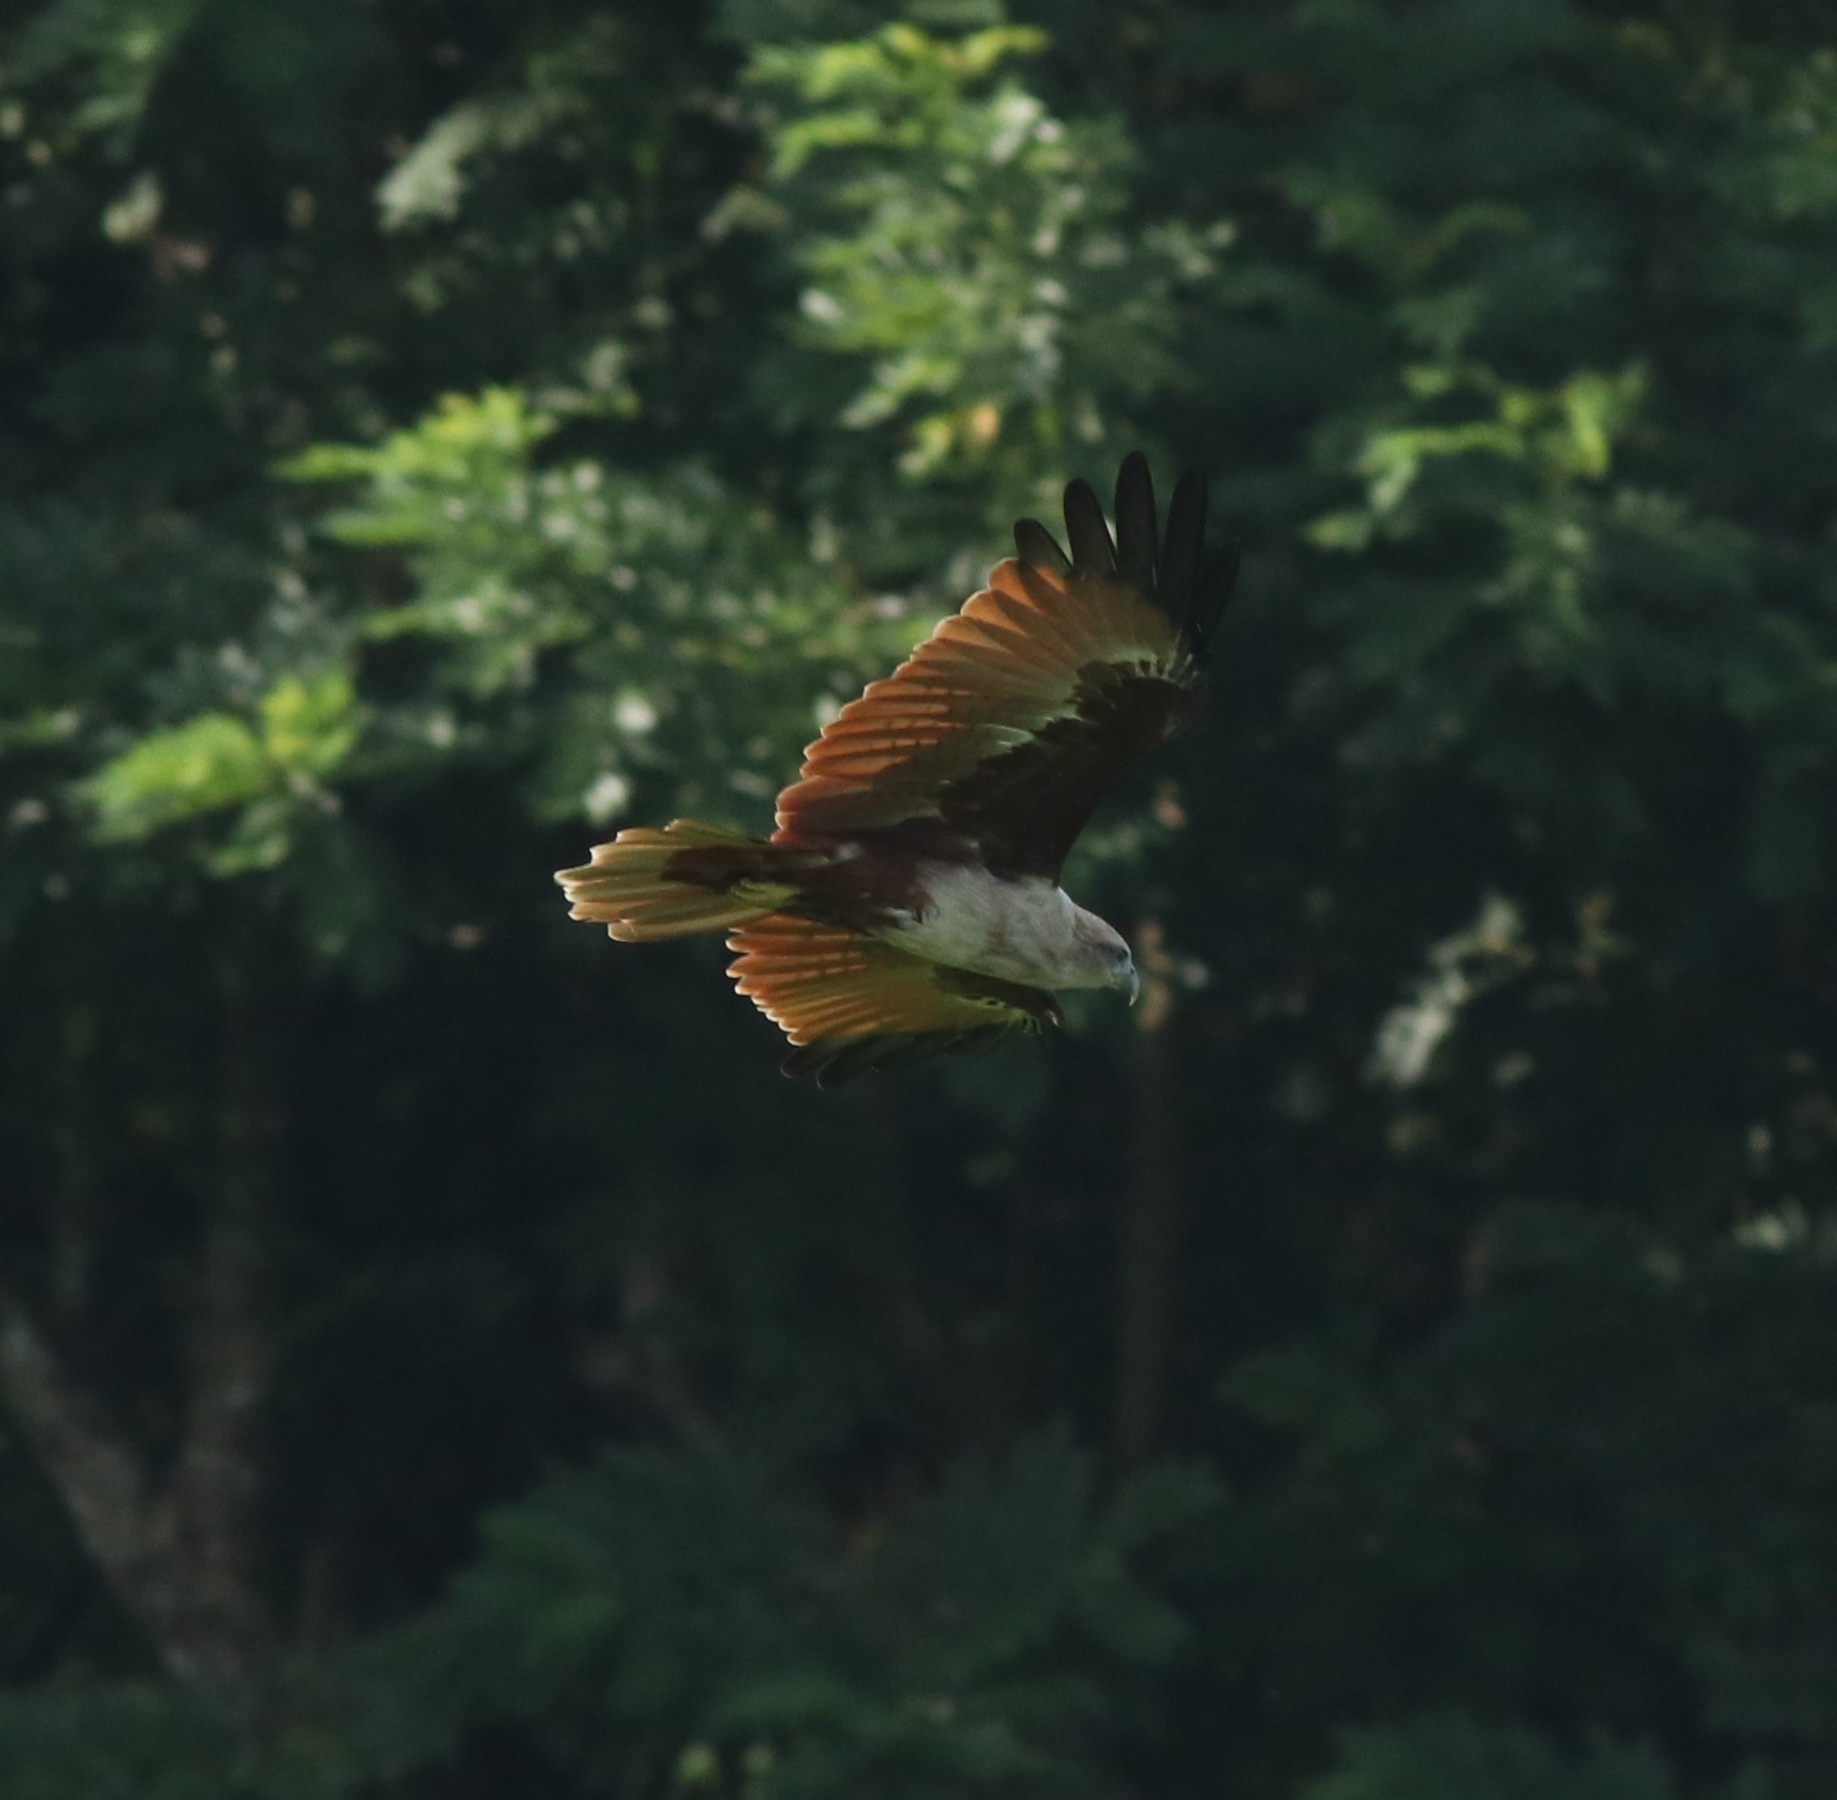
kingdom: Animalia
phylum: Chordata
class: Aves
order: Accipitriformes
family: Accipitridae
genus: Haliastur
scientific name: Haliastur indus
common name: Brahminy kite
